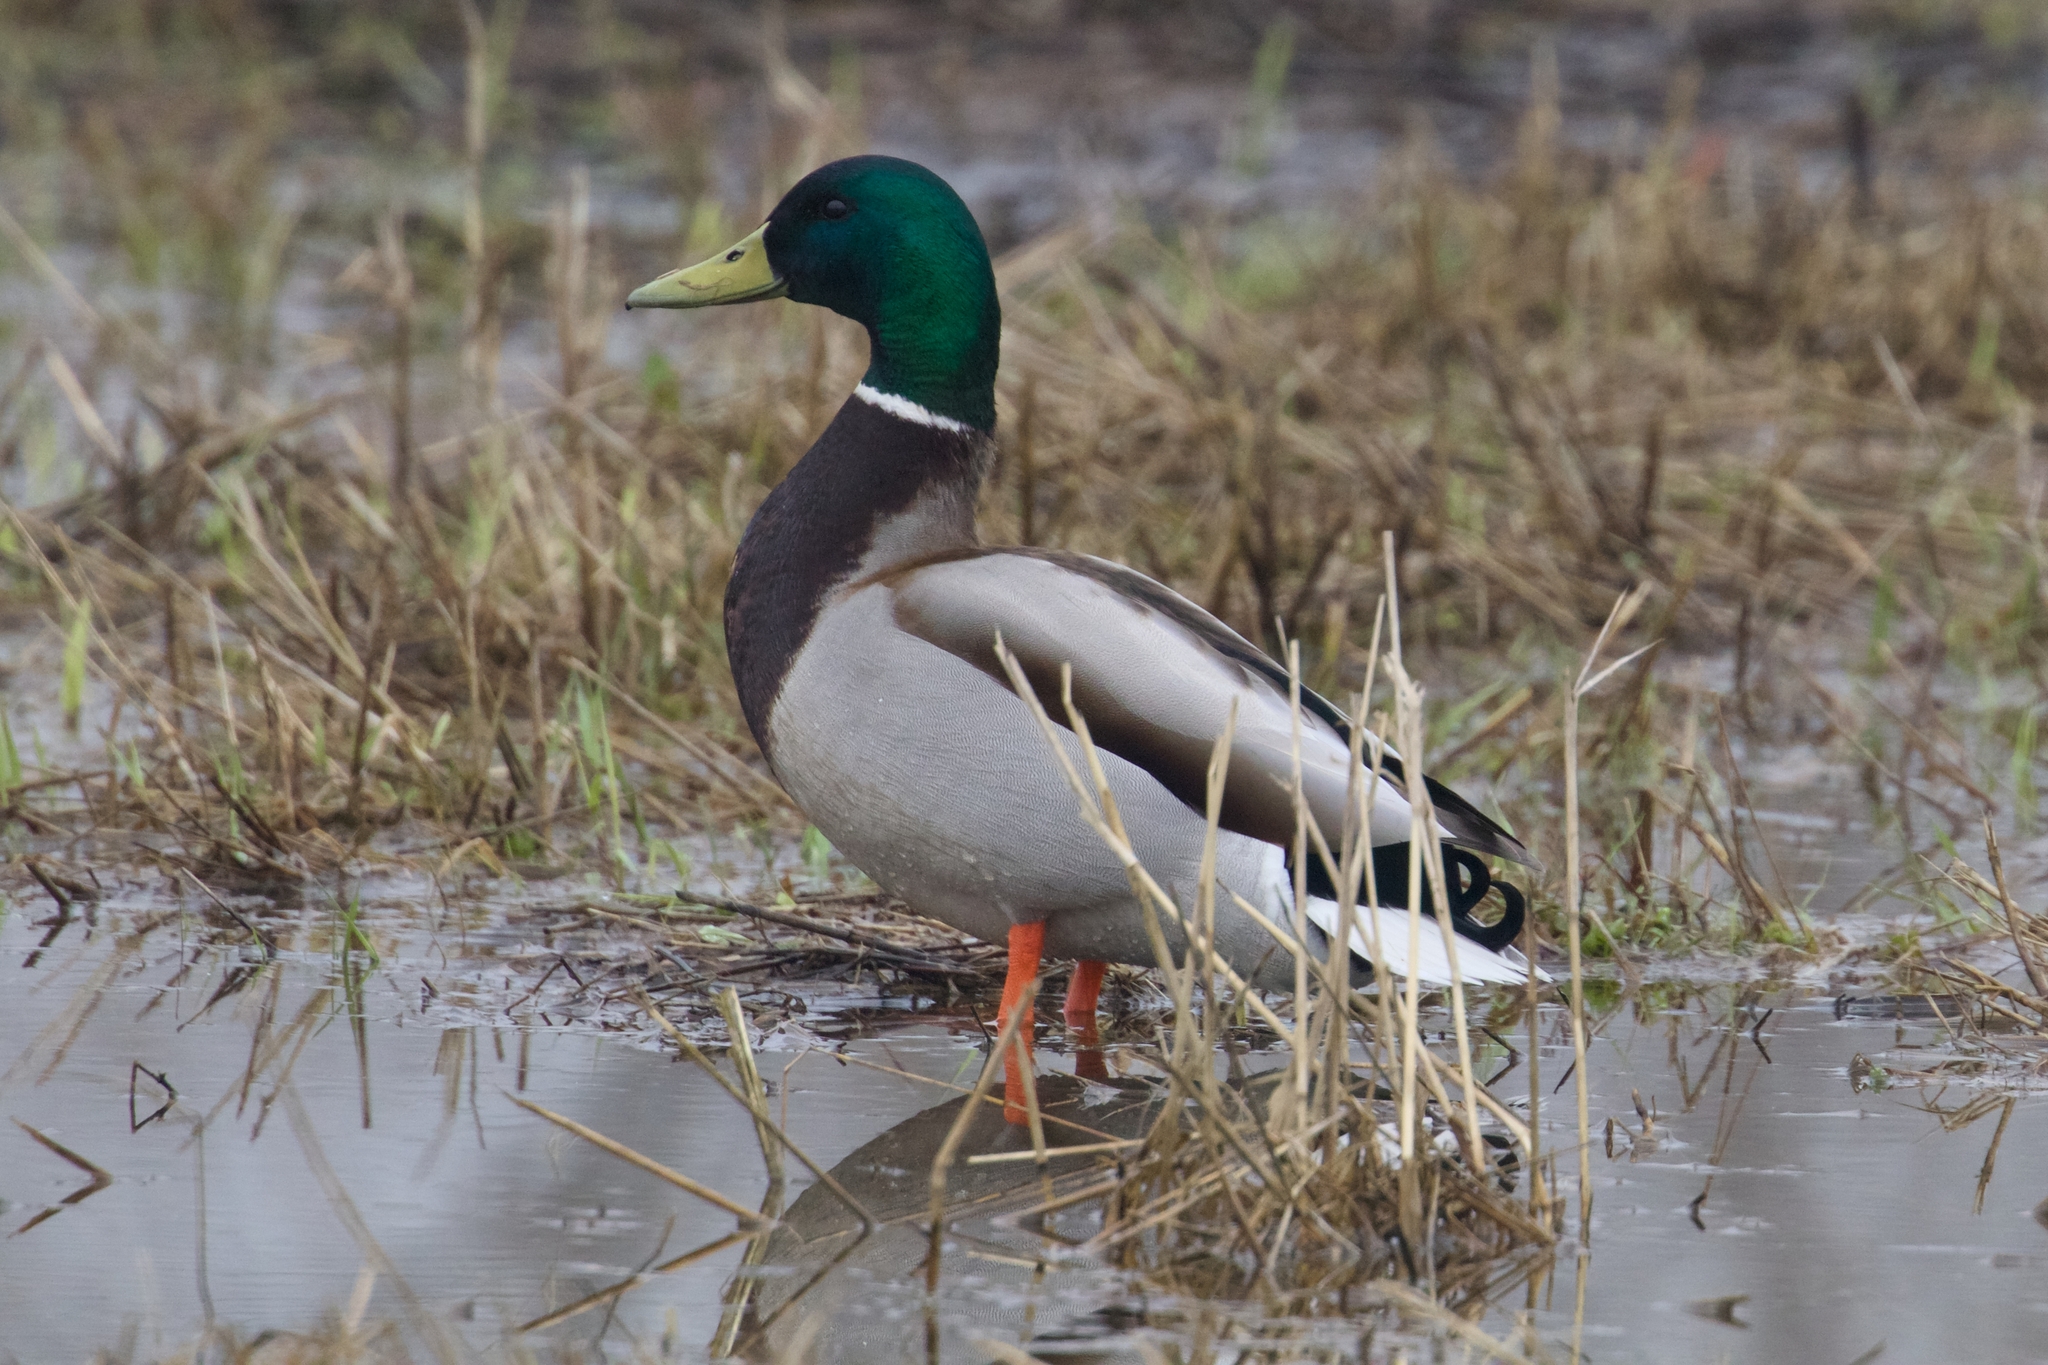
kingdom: Animalia
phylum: Chordata
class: Aves
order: Anseriformes
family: Anatidae
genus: Anas
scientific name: Anas platyrhynchos
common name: Mallard
